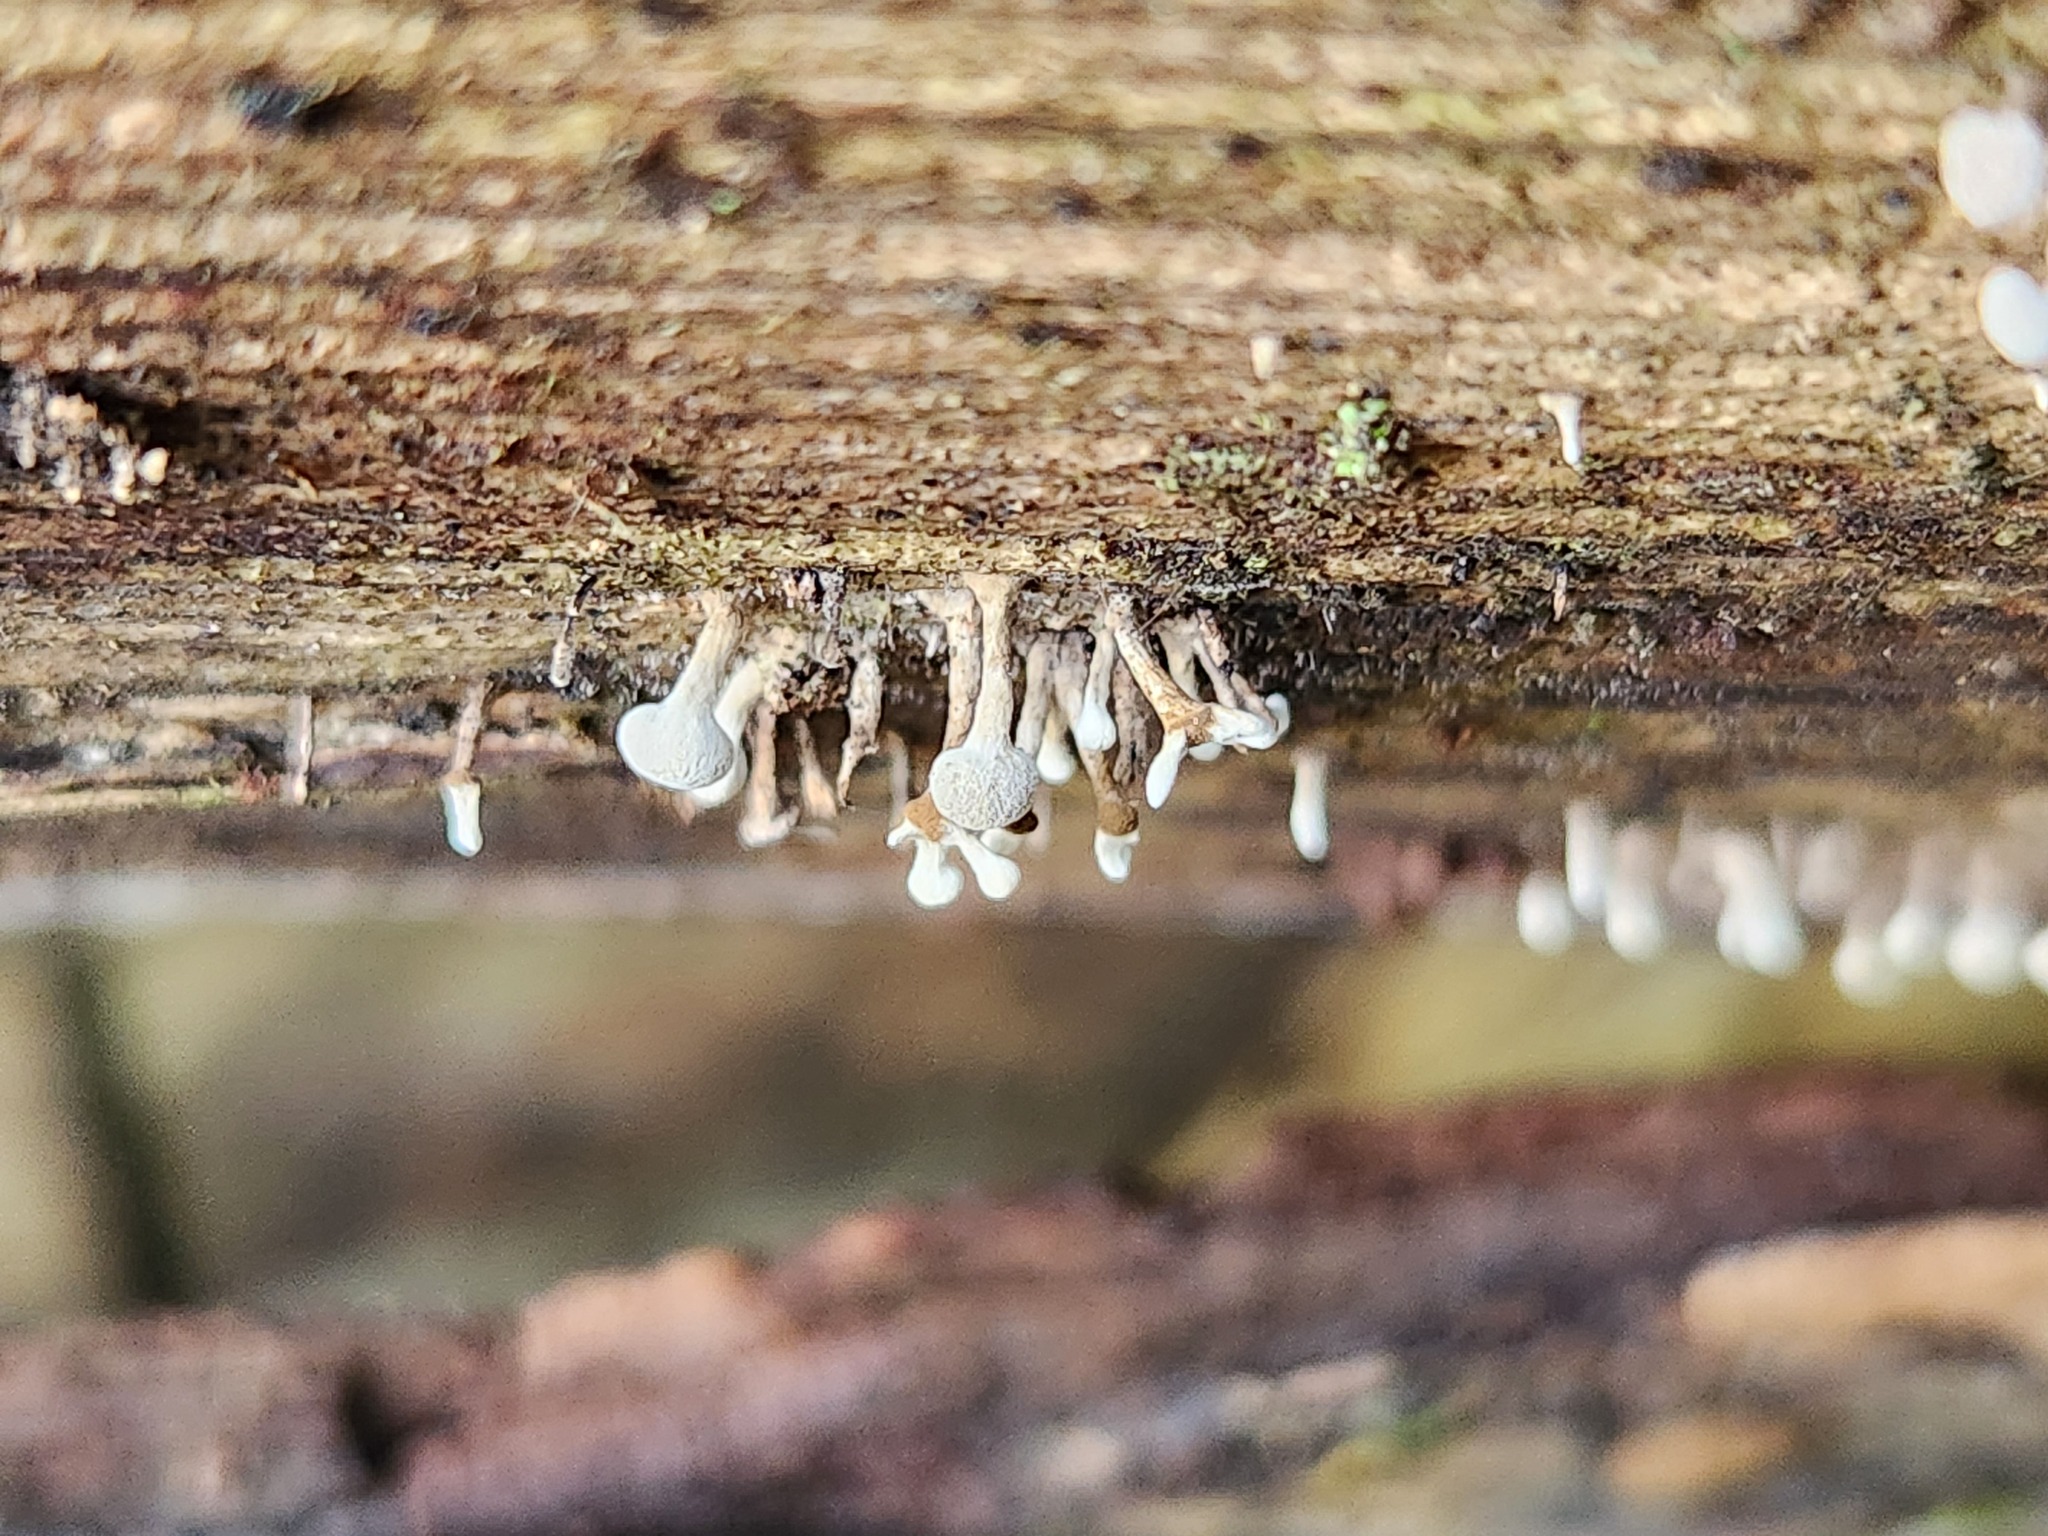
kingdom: Fungi
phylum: Basidiomycota
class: Atractiellomycetes
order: Atractiellales
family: Phleogenaceae
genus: Phleogena
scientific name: Phleogena faginea
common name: Fenugreek stalkball
